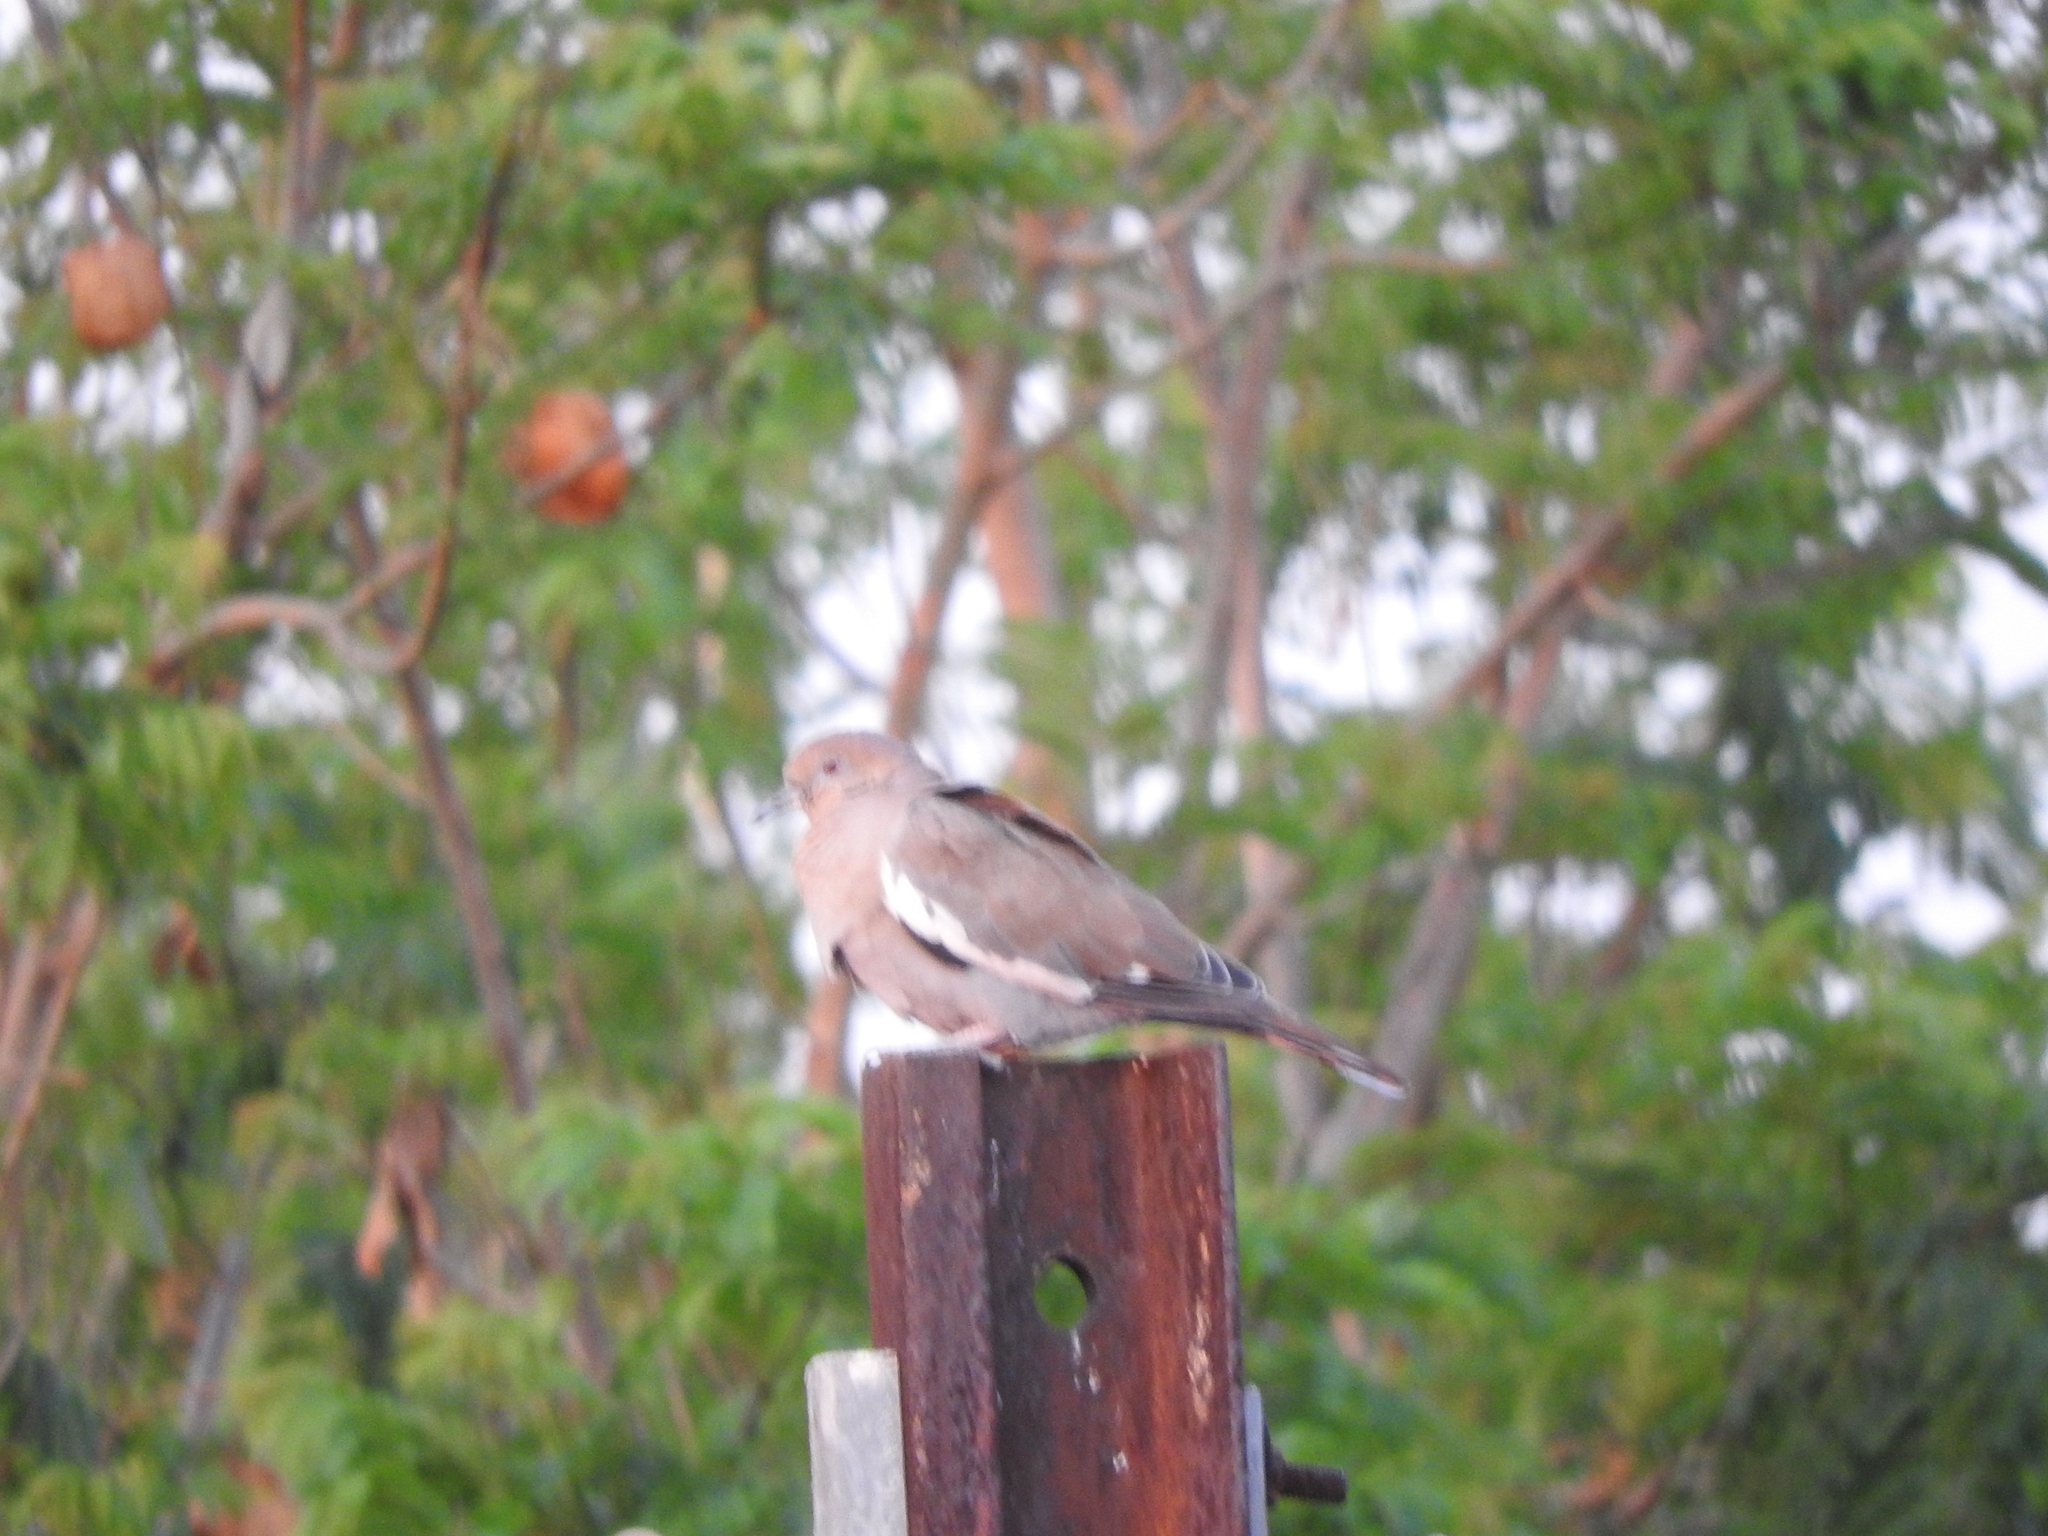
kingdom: Animalia
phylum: Chordata
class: Aves
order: Columbiformes
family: Columbidae
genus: Zenaida
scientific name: Zenaida asiatica
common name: White-winged dove
